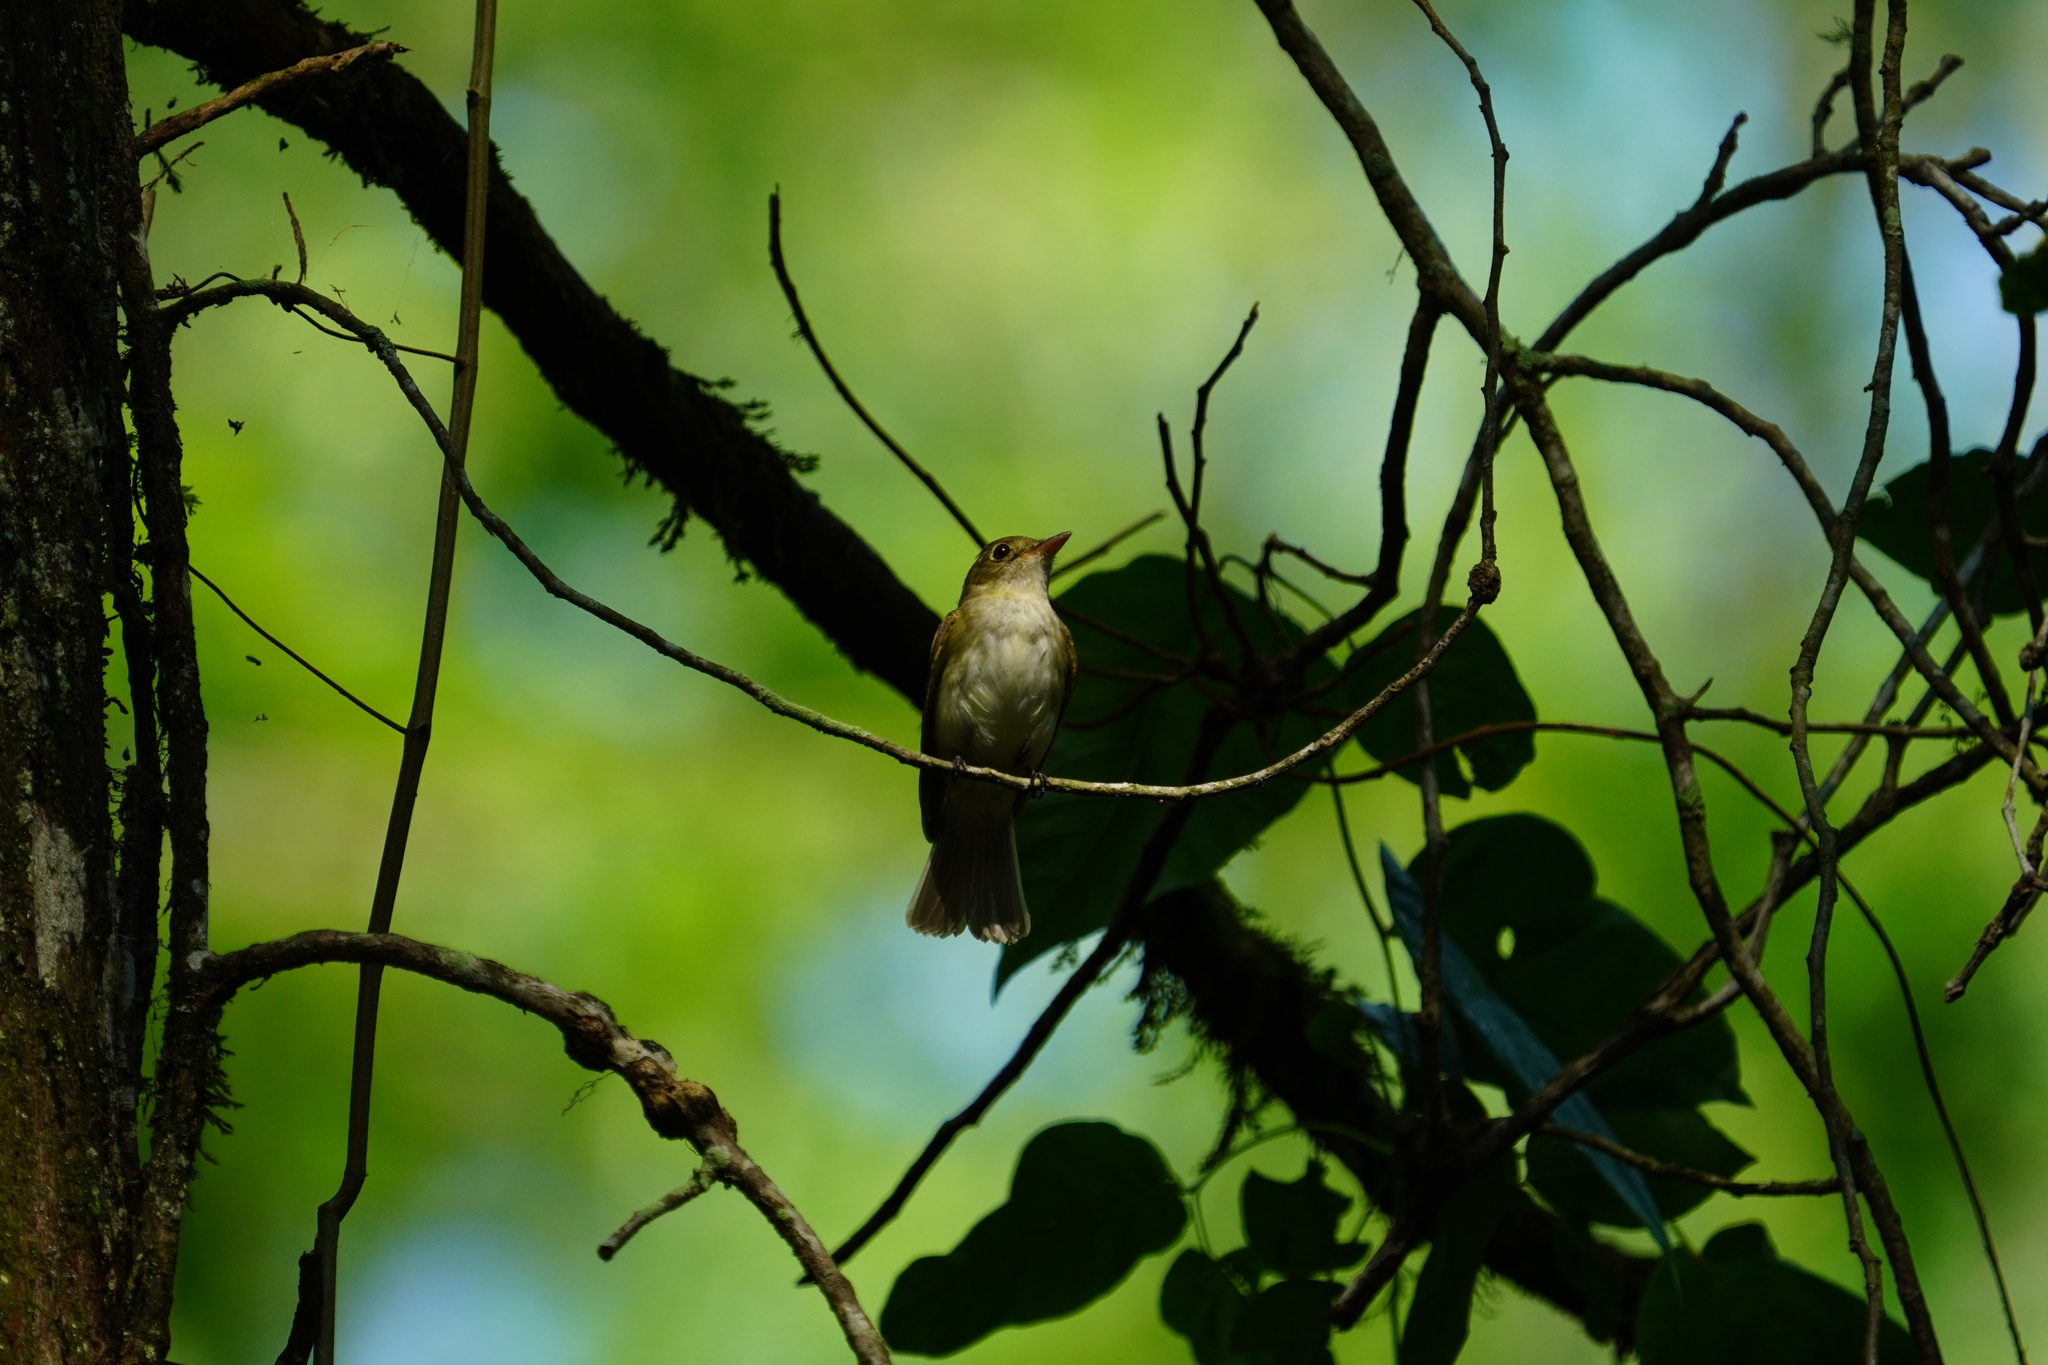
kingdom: Animalia
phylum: Chordata
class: Aves
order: Passeriformes
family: Tyrannidae
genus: Empidonax
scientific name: Empidonax virescens
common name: Acadian flycatcher
